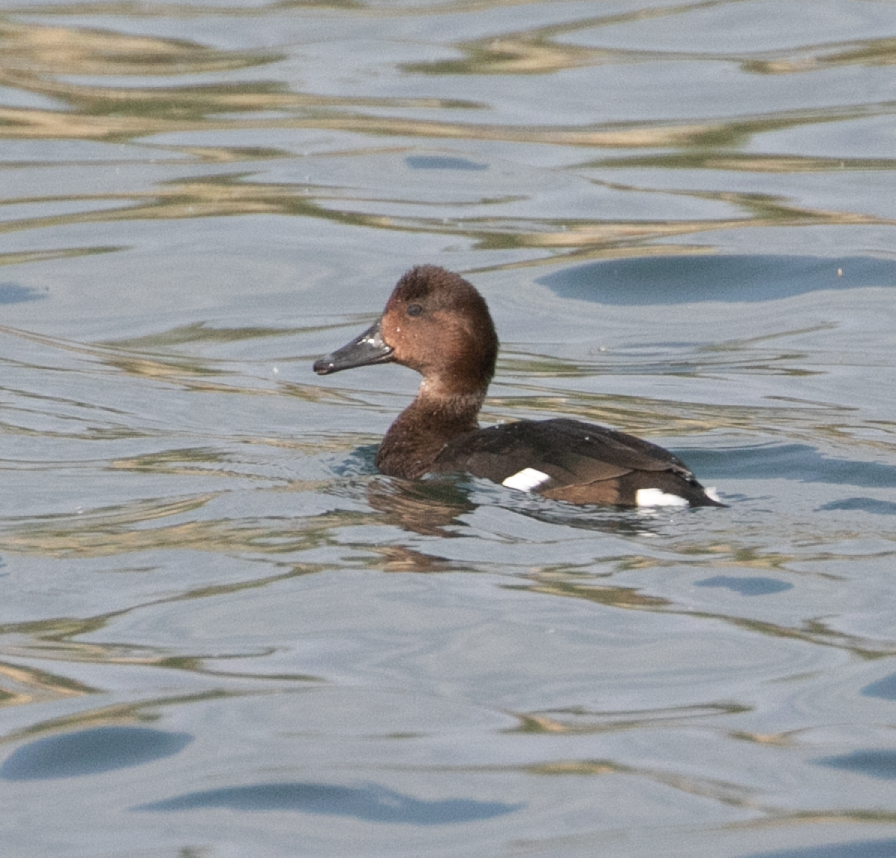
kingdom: Animalia
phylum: Chordata
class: Aves
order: Anseriformes
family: Anatidae
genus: Aythya
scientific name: Aythya nyroca
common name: Ferruginous duck
